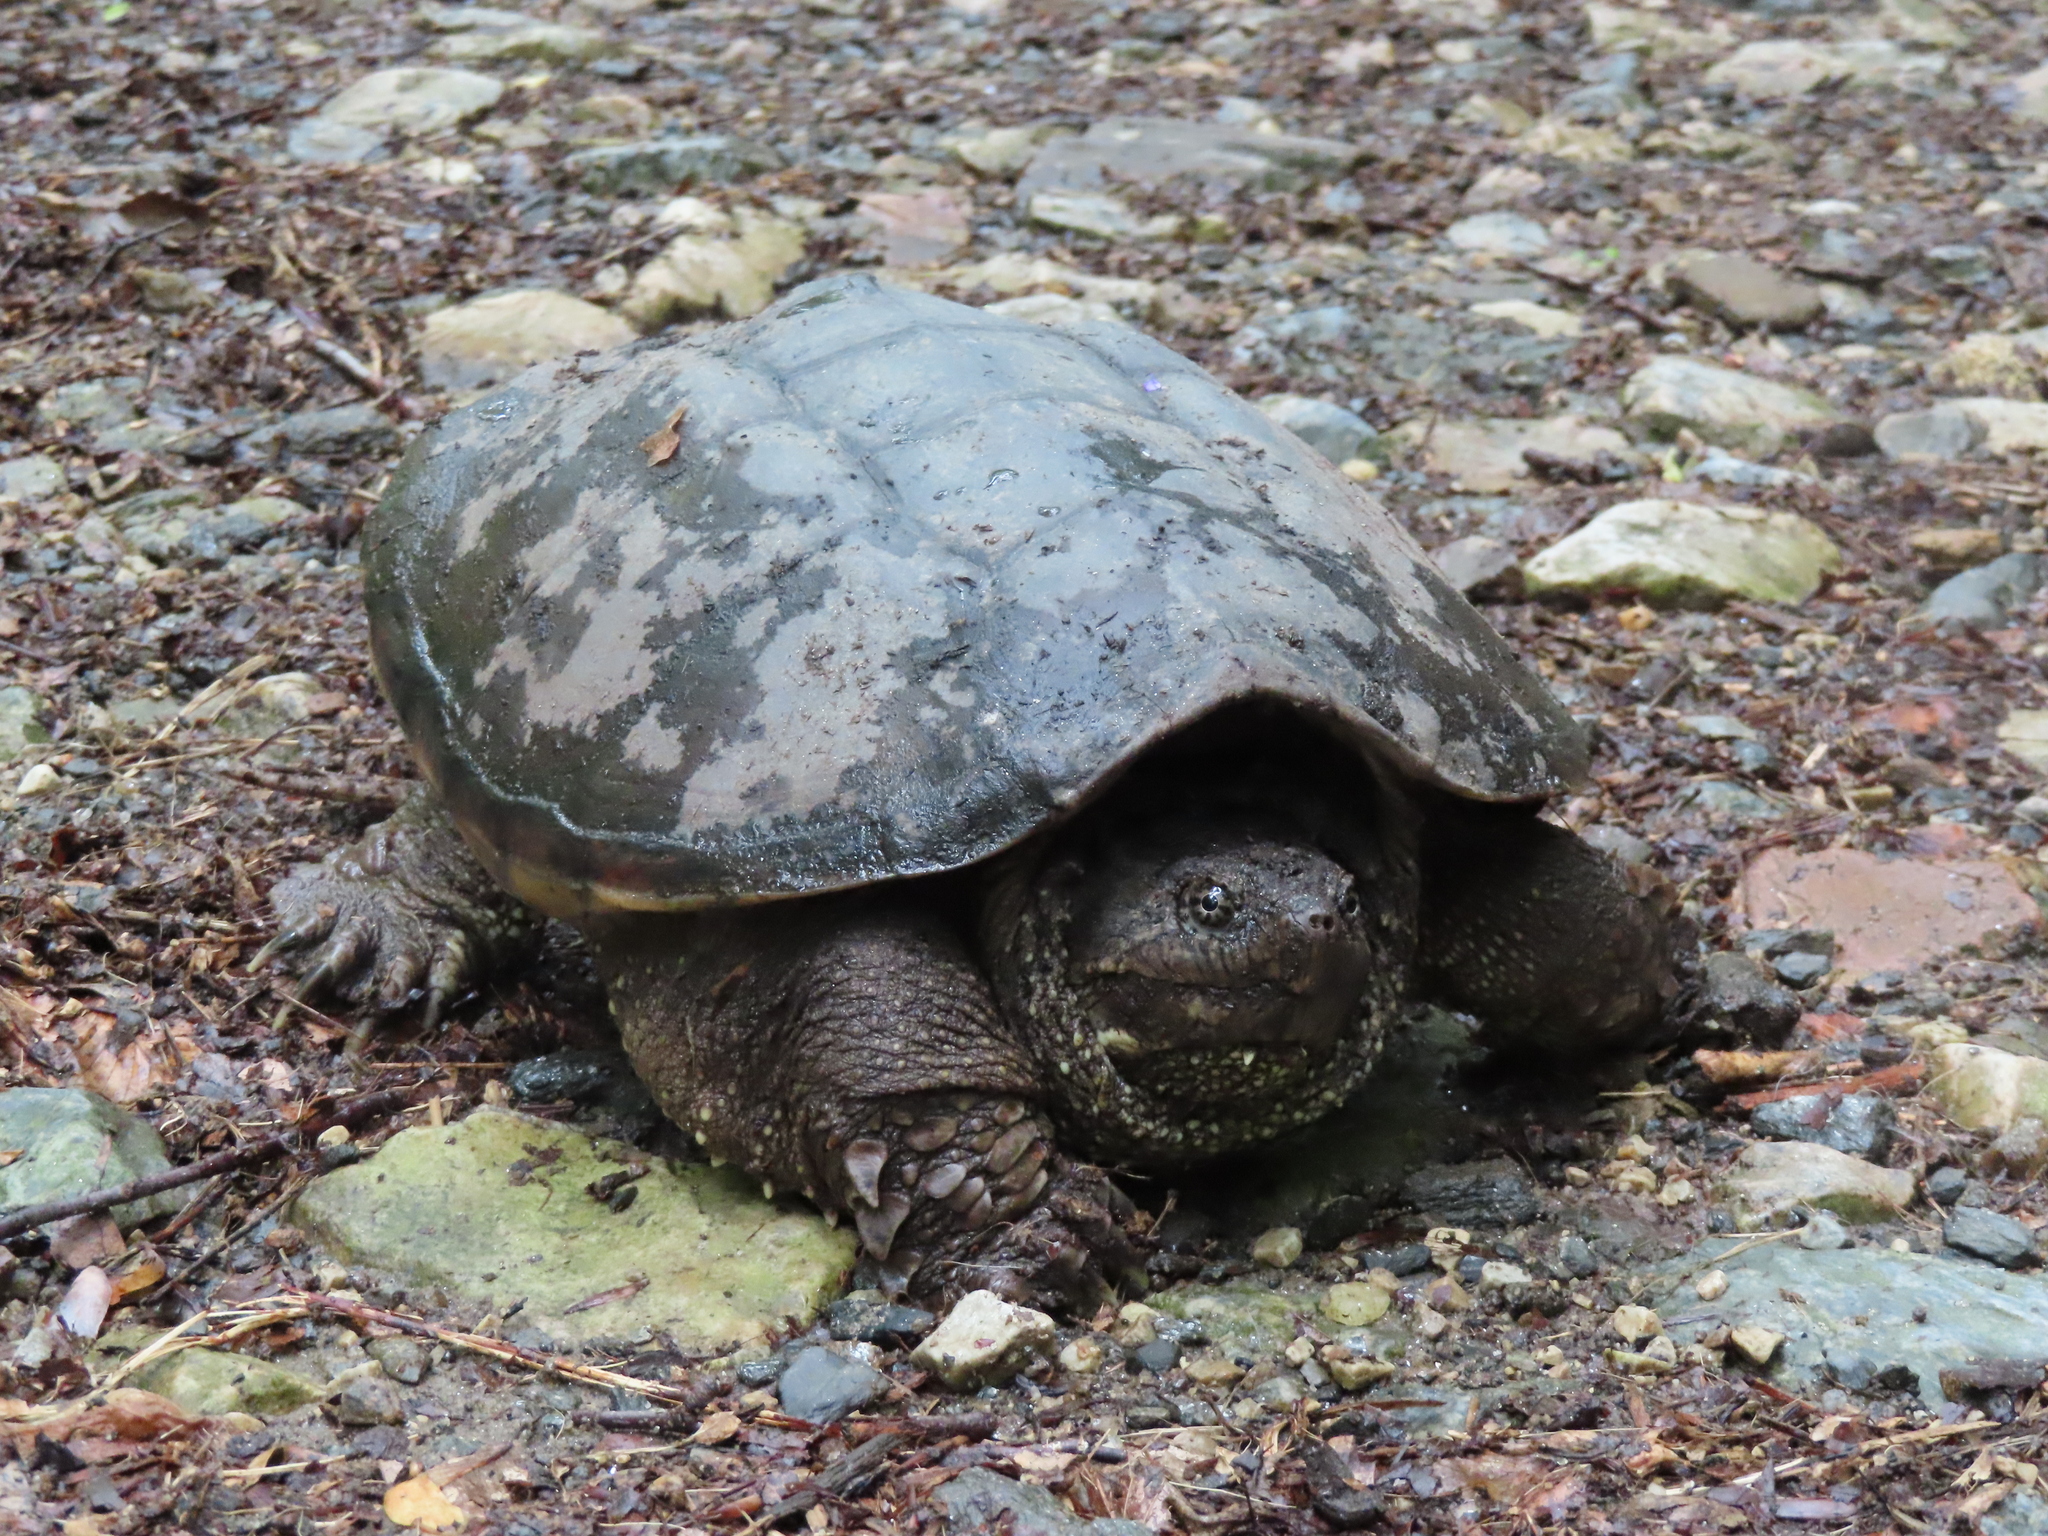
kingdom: Animalia
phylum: Chordata
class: Testudines
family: Chelydridae
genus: Chelydra
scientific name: Chelydra serpentina
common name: Common snapping turtle
